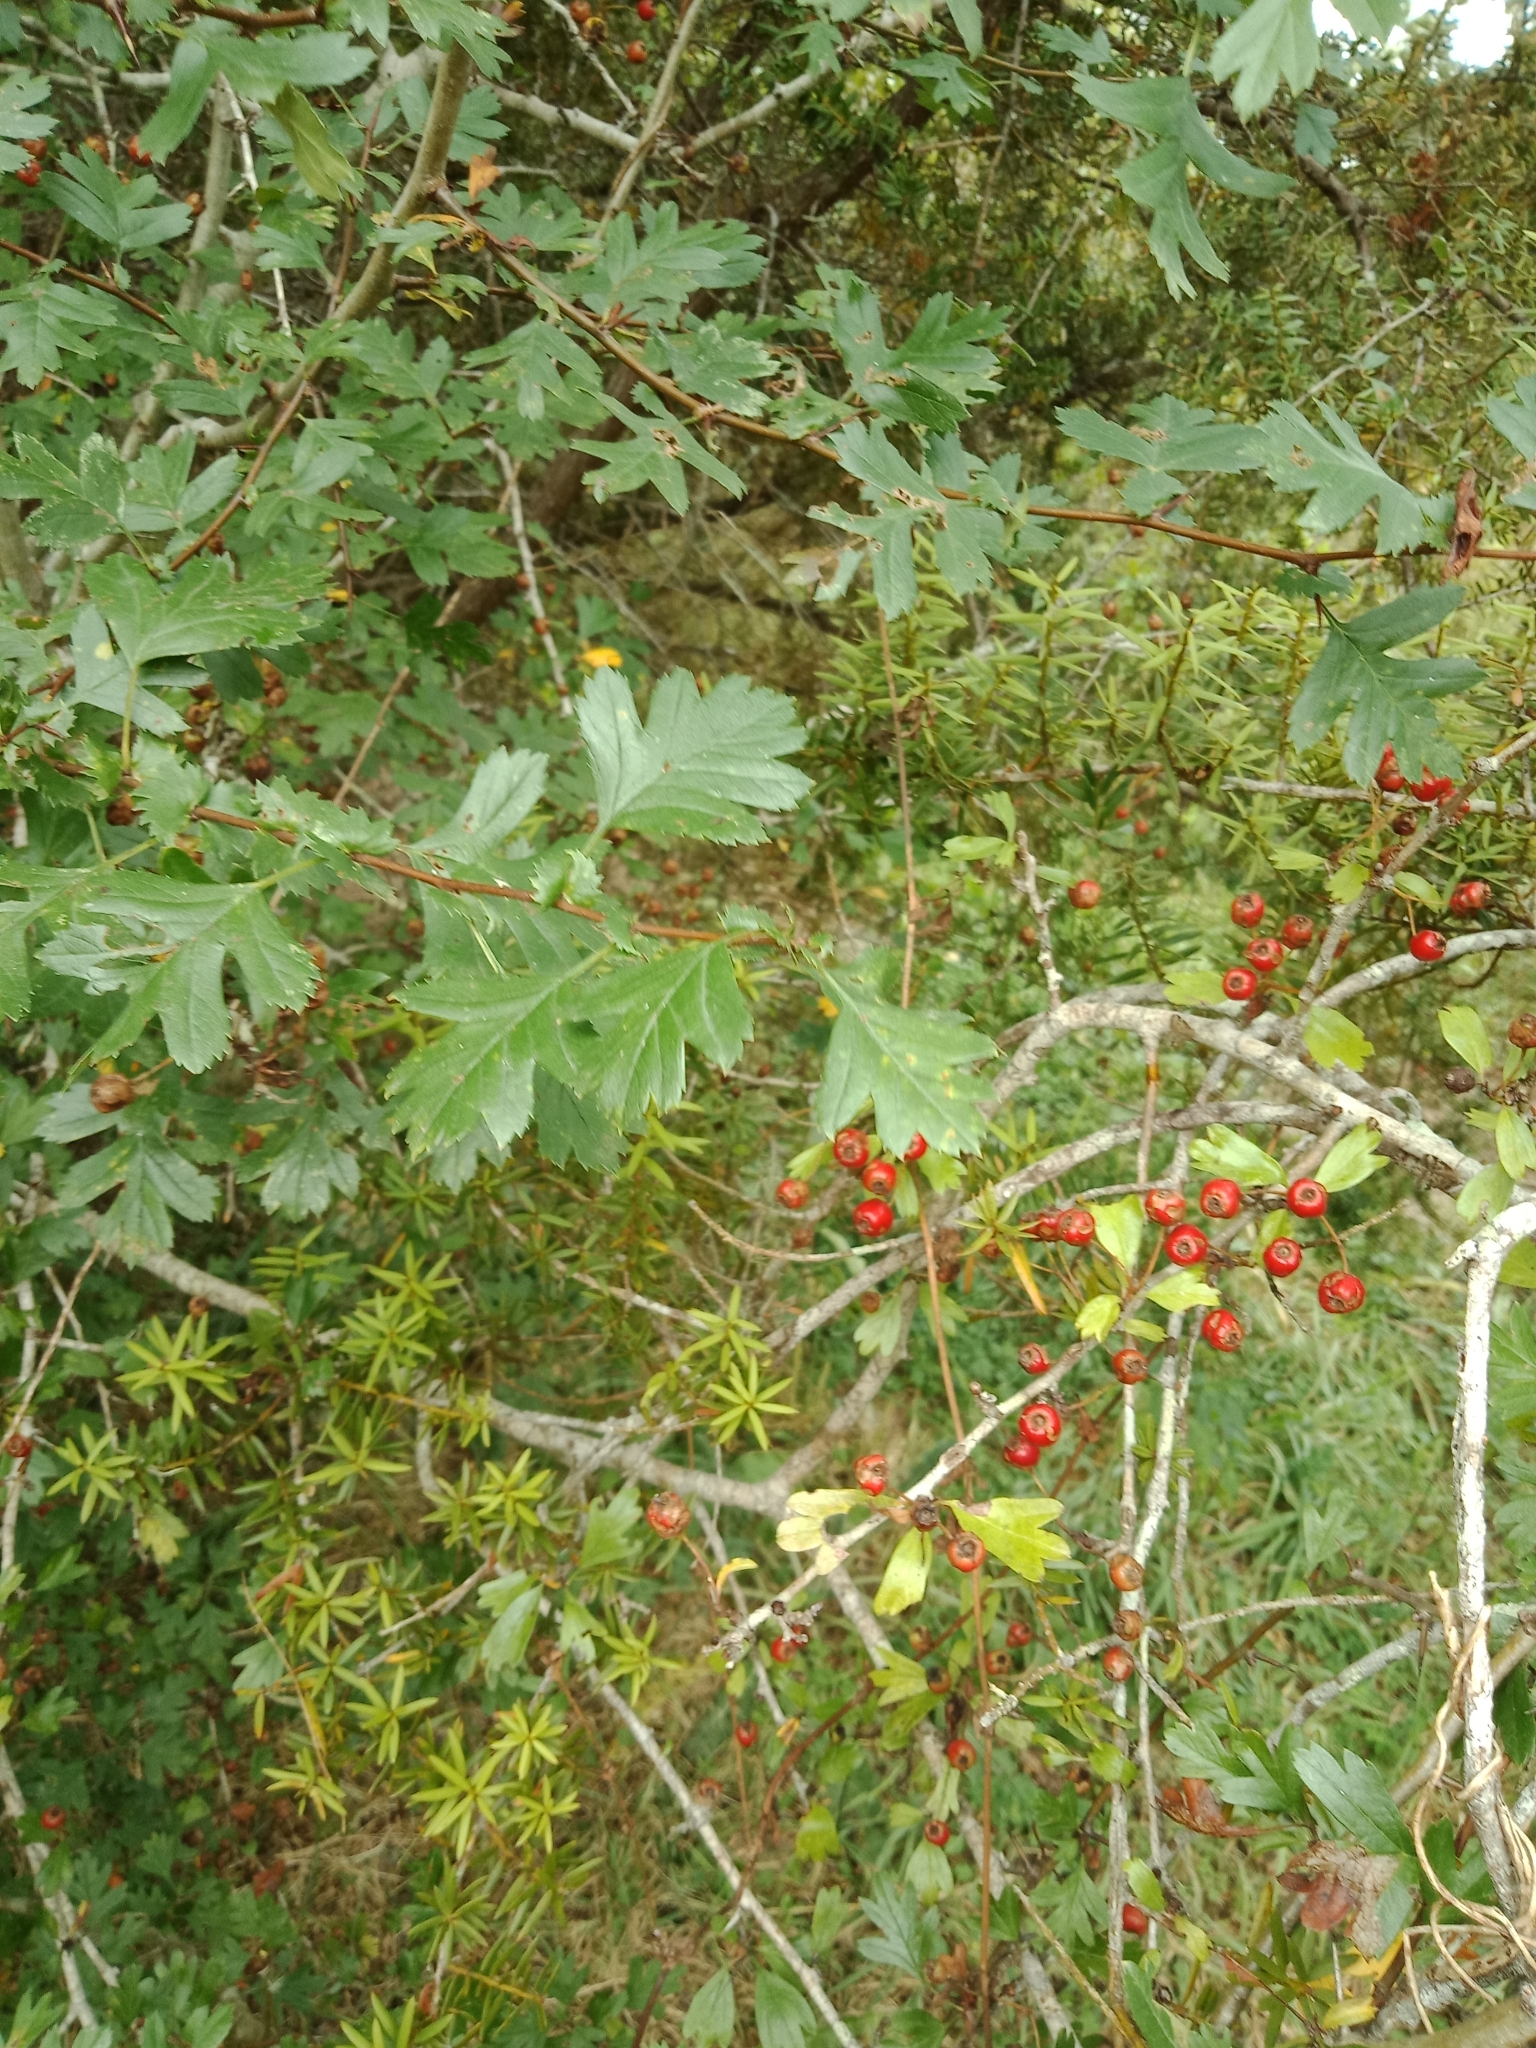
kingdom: Plantae
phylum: Tracheophyta
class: Magnoliopsida
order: Rosales
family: Rosaceae
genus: Crataegus
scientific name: Crataegus monogyna
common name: Hawthorn
